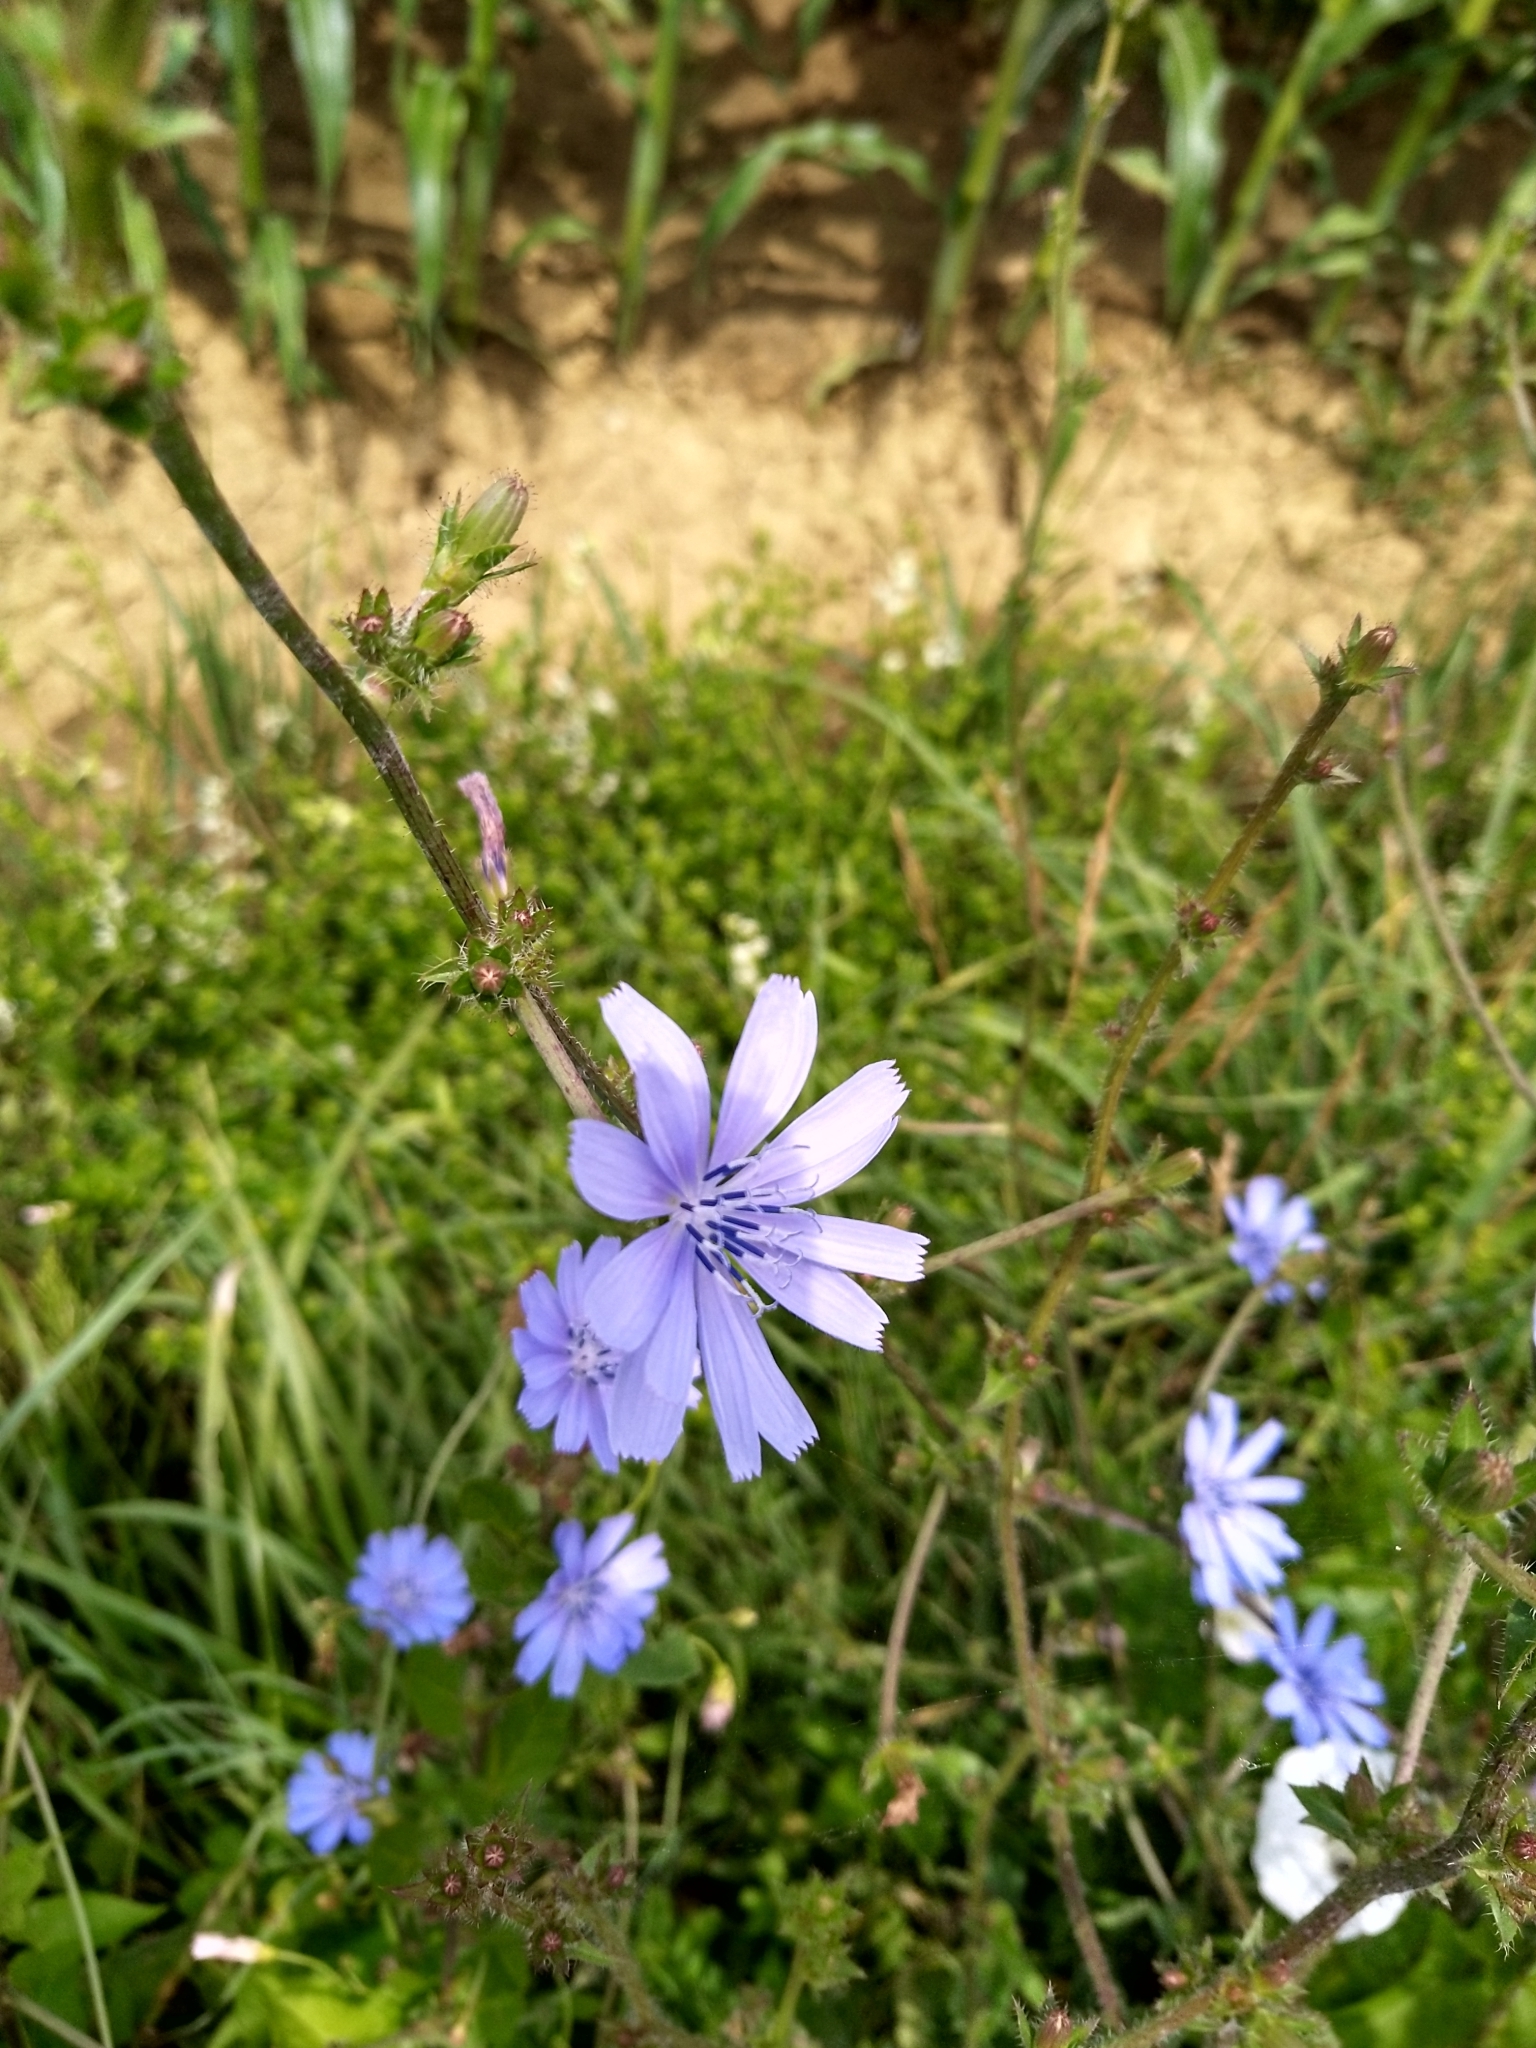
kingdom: Plantae
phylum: Tracheophyta
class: Magnoliopsida
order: Asterales
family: Asteraceae
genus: Cichorium
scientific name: Cichorium intybus
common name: Chicory
